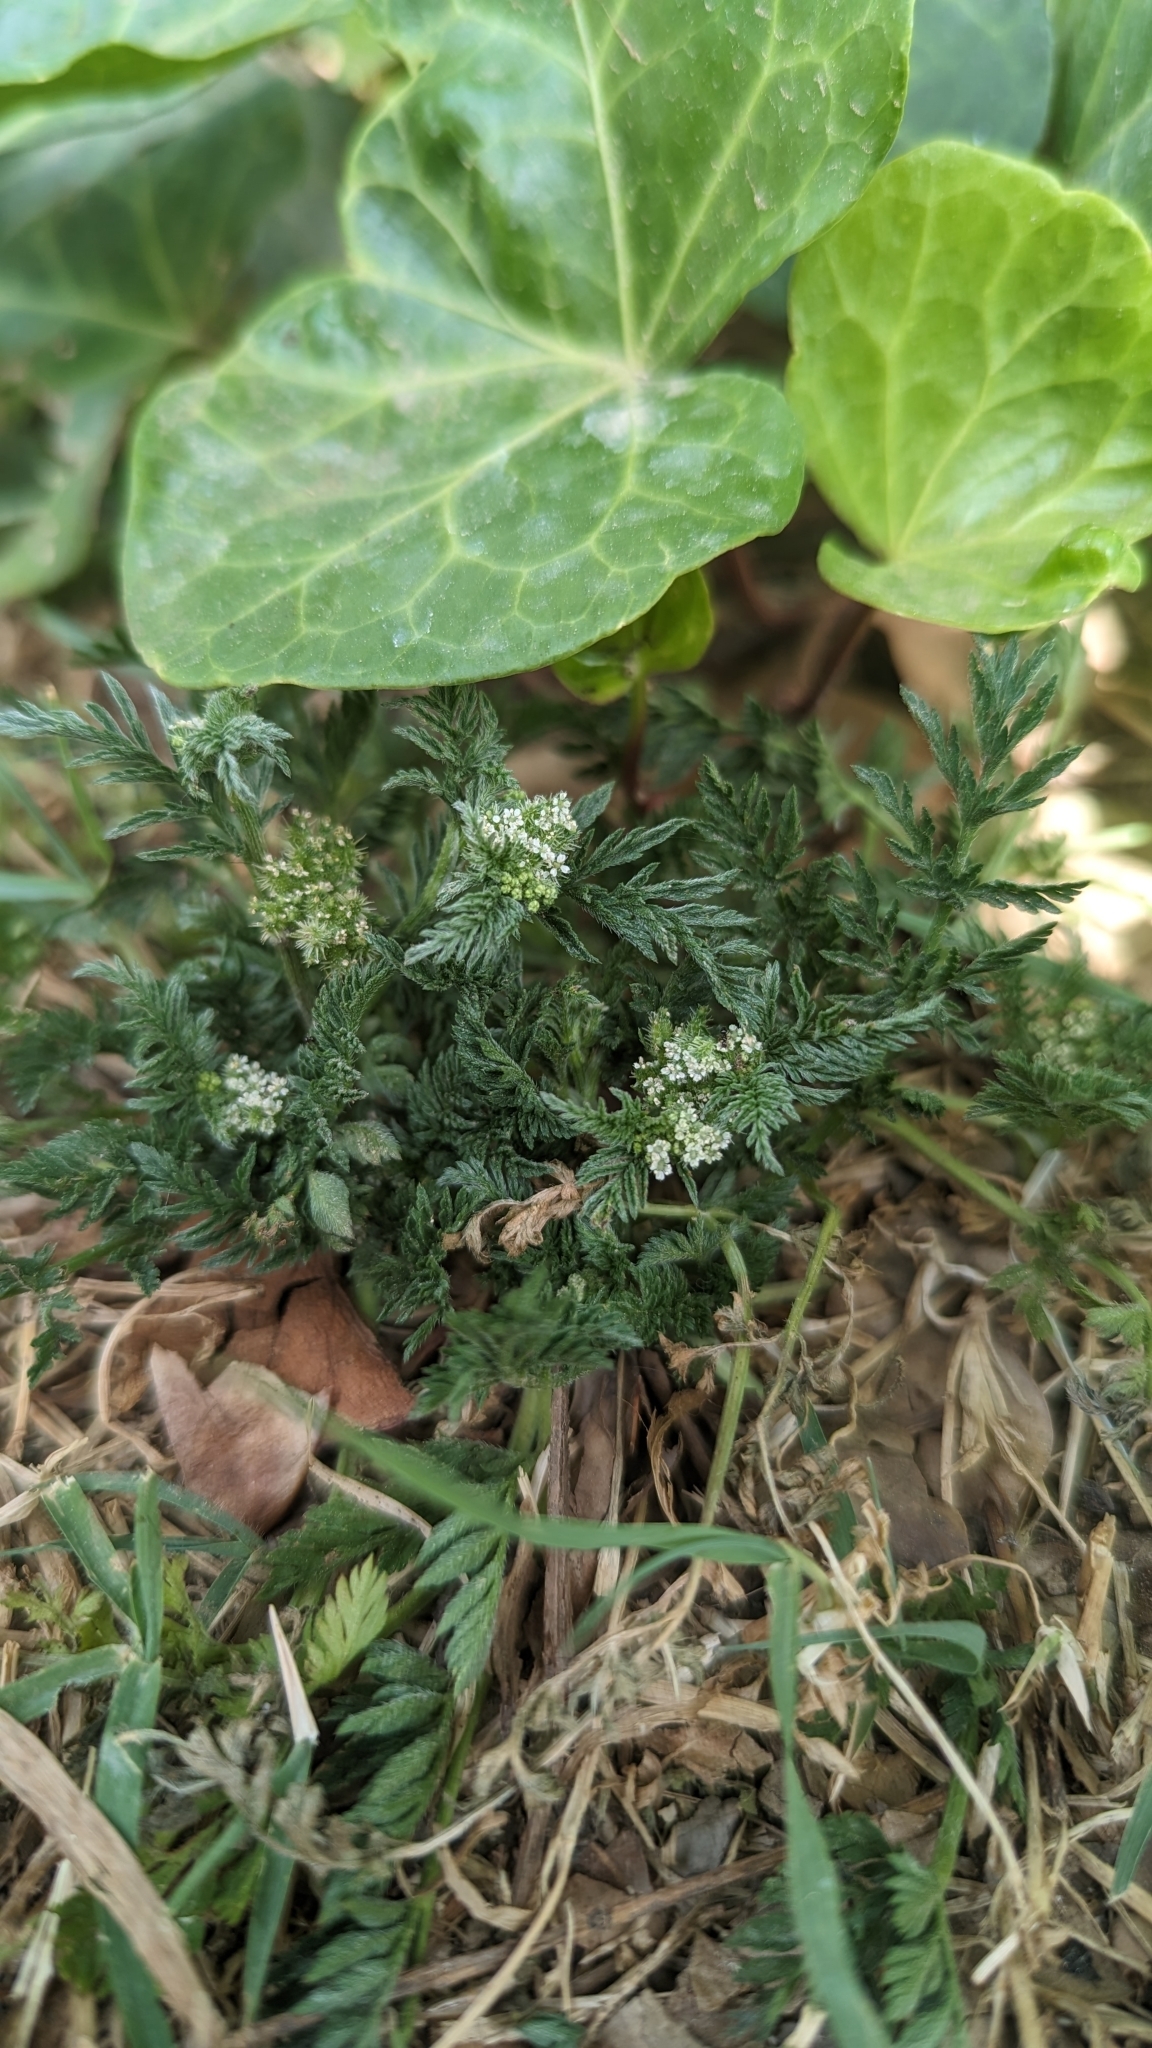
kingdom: Plantae
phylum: Tracheophyta
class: Magnoliopsida
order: Apiales
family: Apiaceae
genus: Torilis
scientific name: Torilis nodosa
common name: Knotted hedge-parsley
